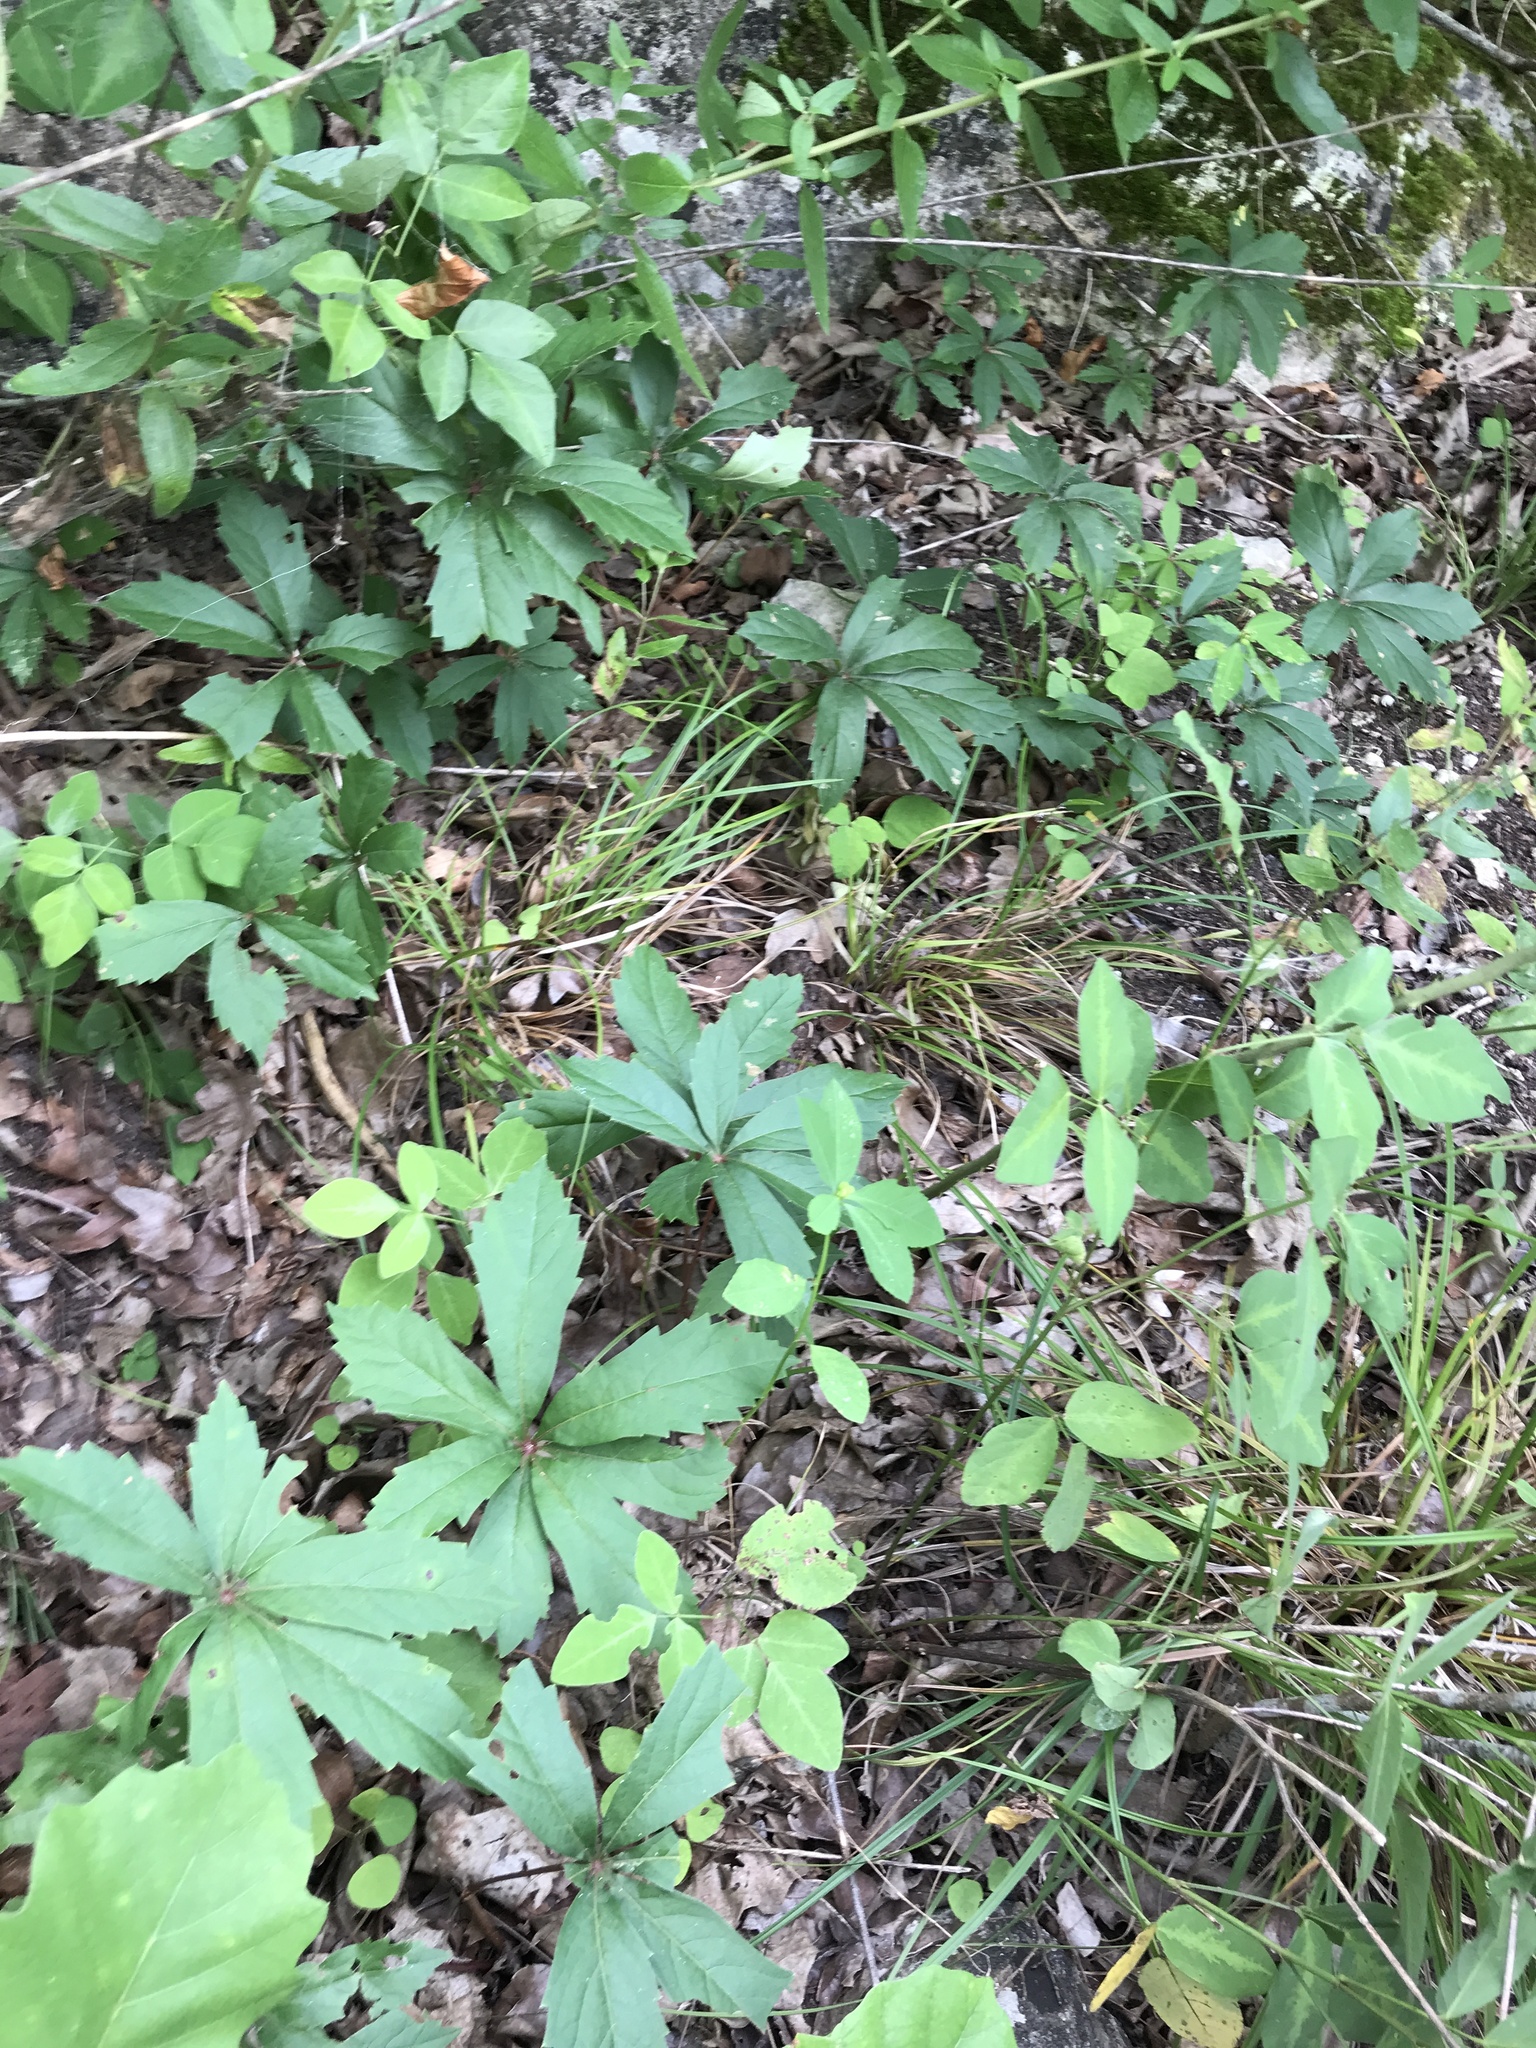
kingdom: Plantae
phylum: Tracheophyta
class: Magnoliopsida
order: Vitales
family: Vitaceae
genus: Parthenocissus
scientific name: Parthenocissus heptaphylla
